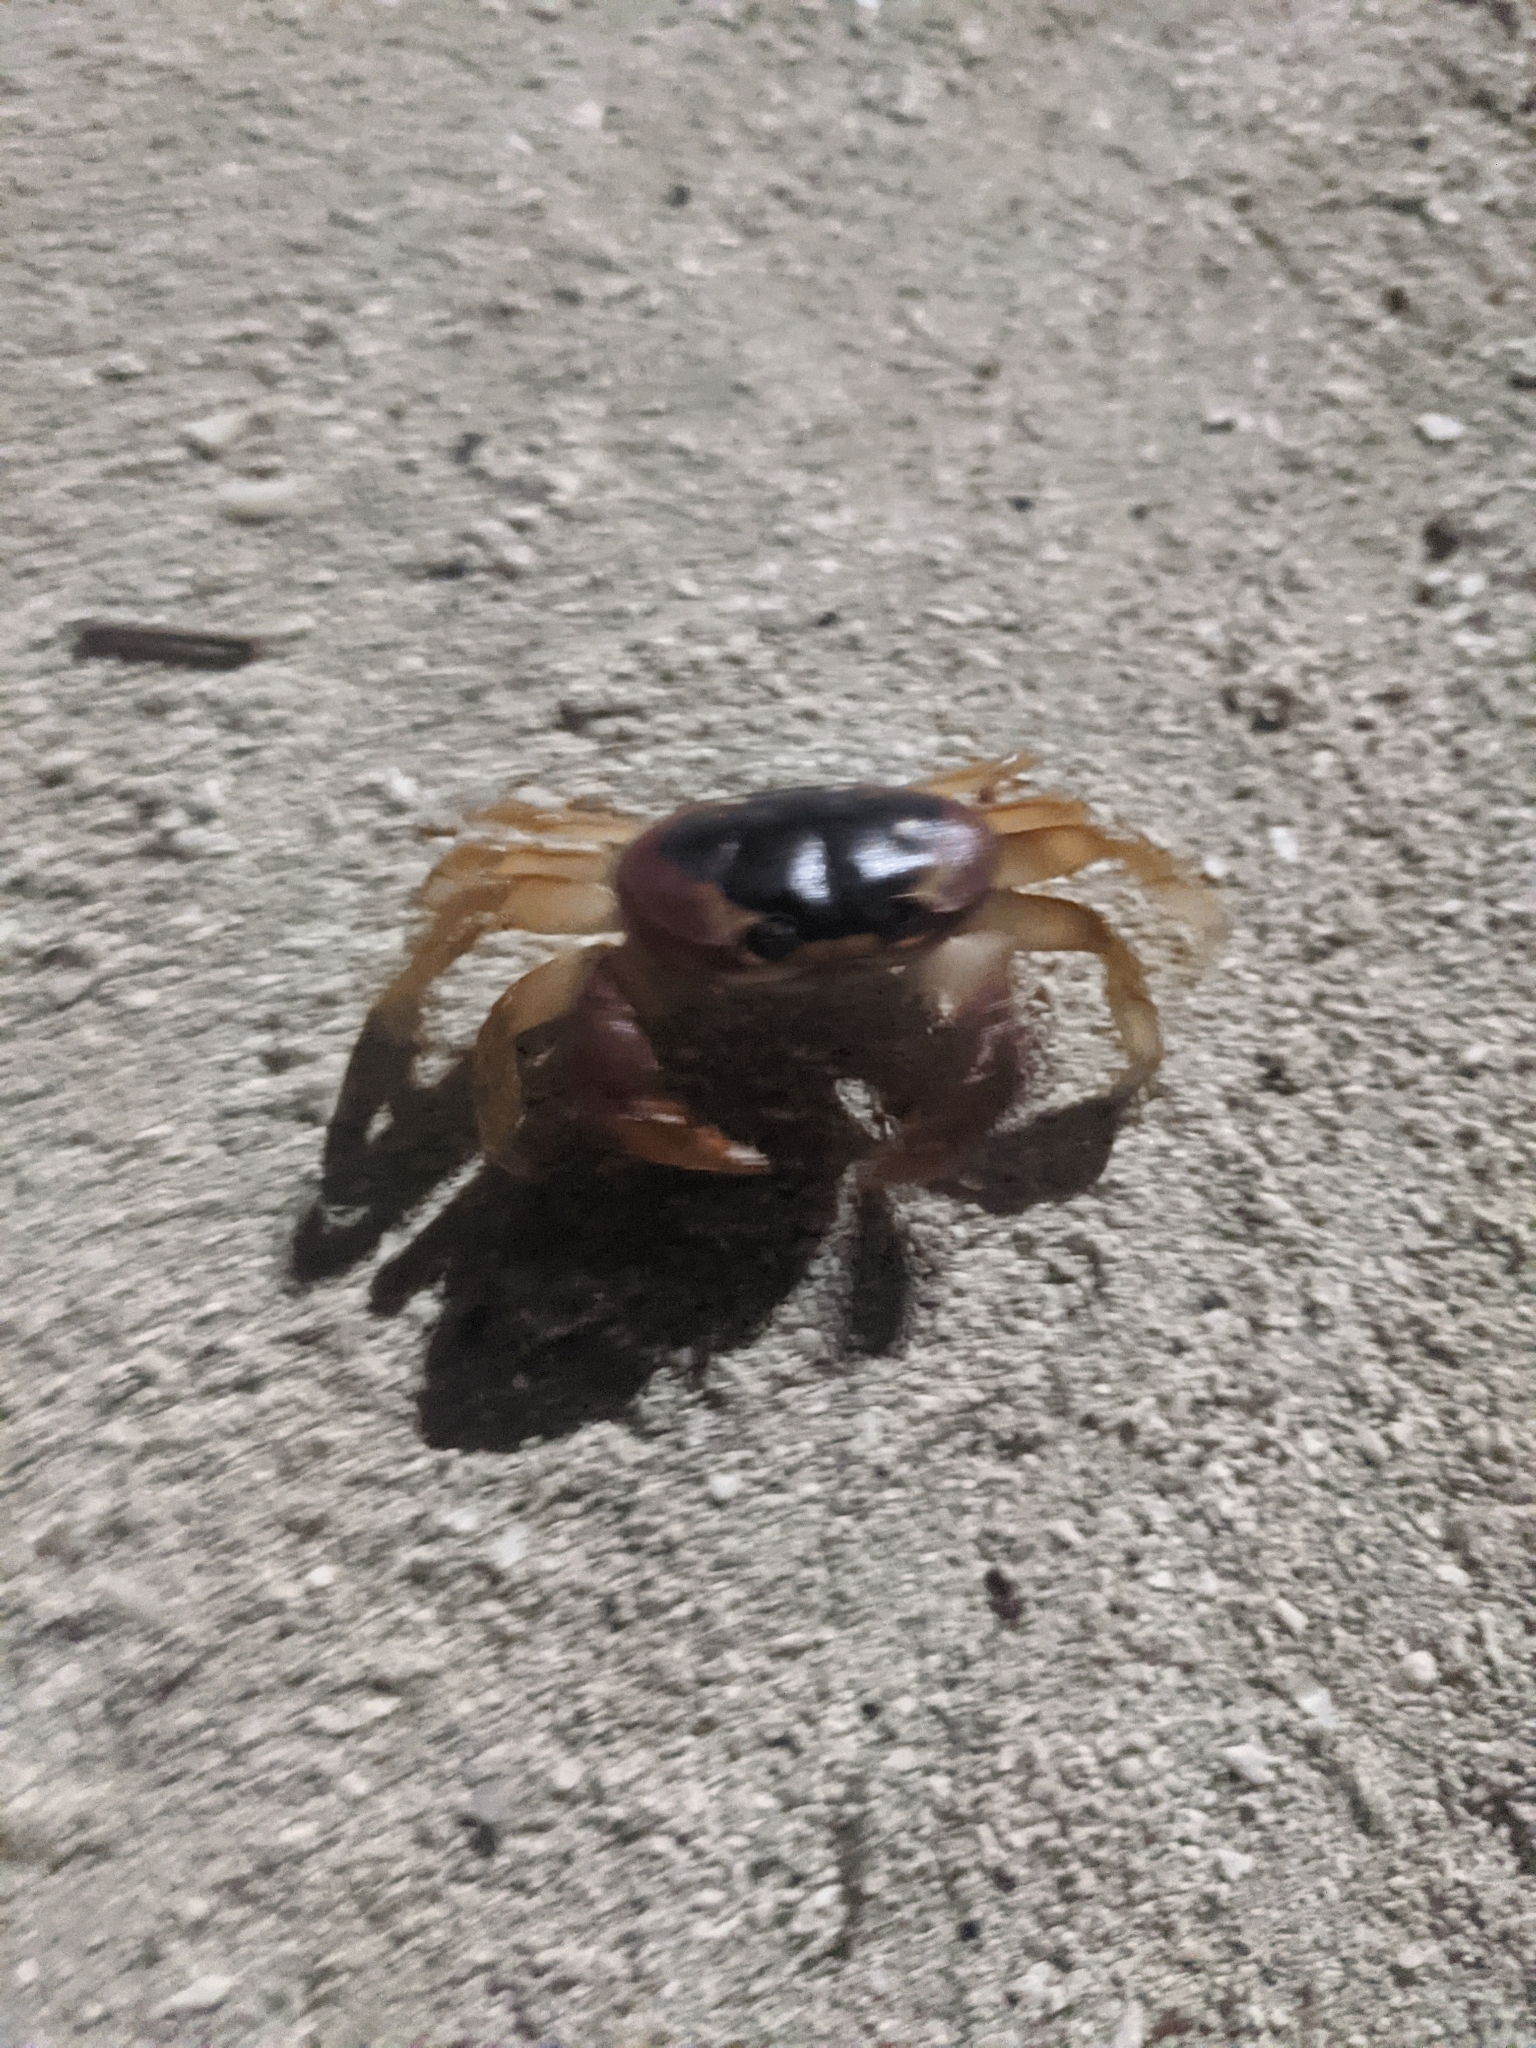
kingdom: Animalia
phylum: Arthropoda
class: Malacostraca
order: Decapoda
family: Gecarcinidae
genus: Gecarcinus
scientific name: Gecarcinus lateralis
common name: Bermuda land crab
